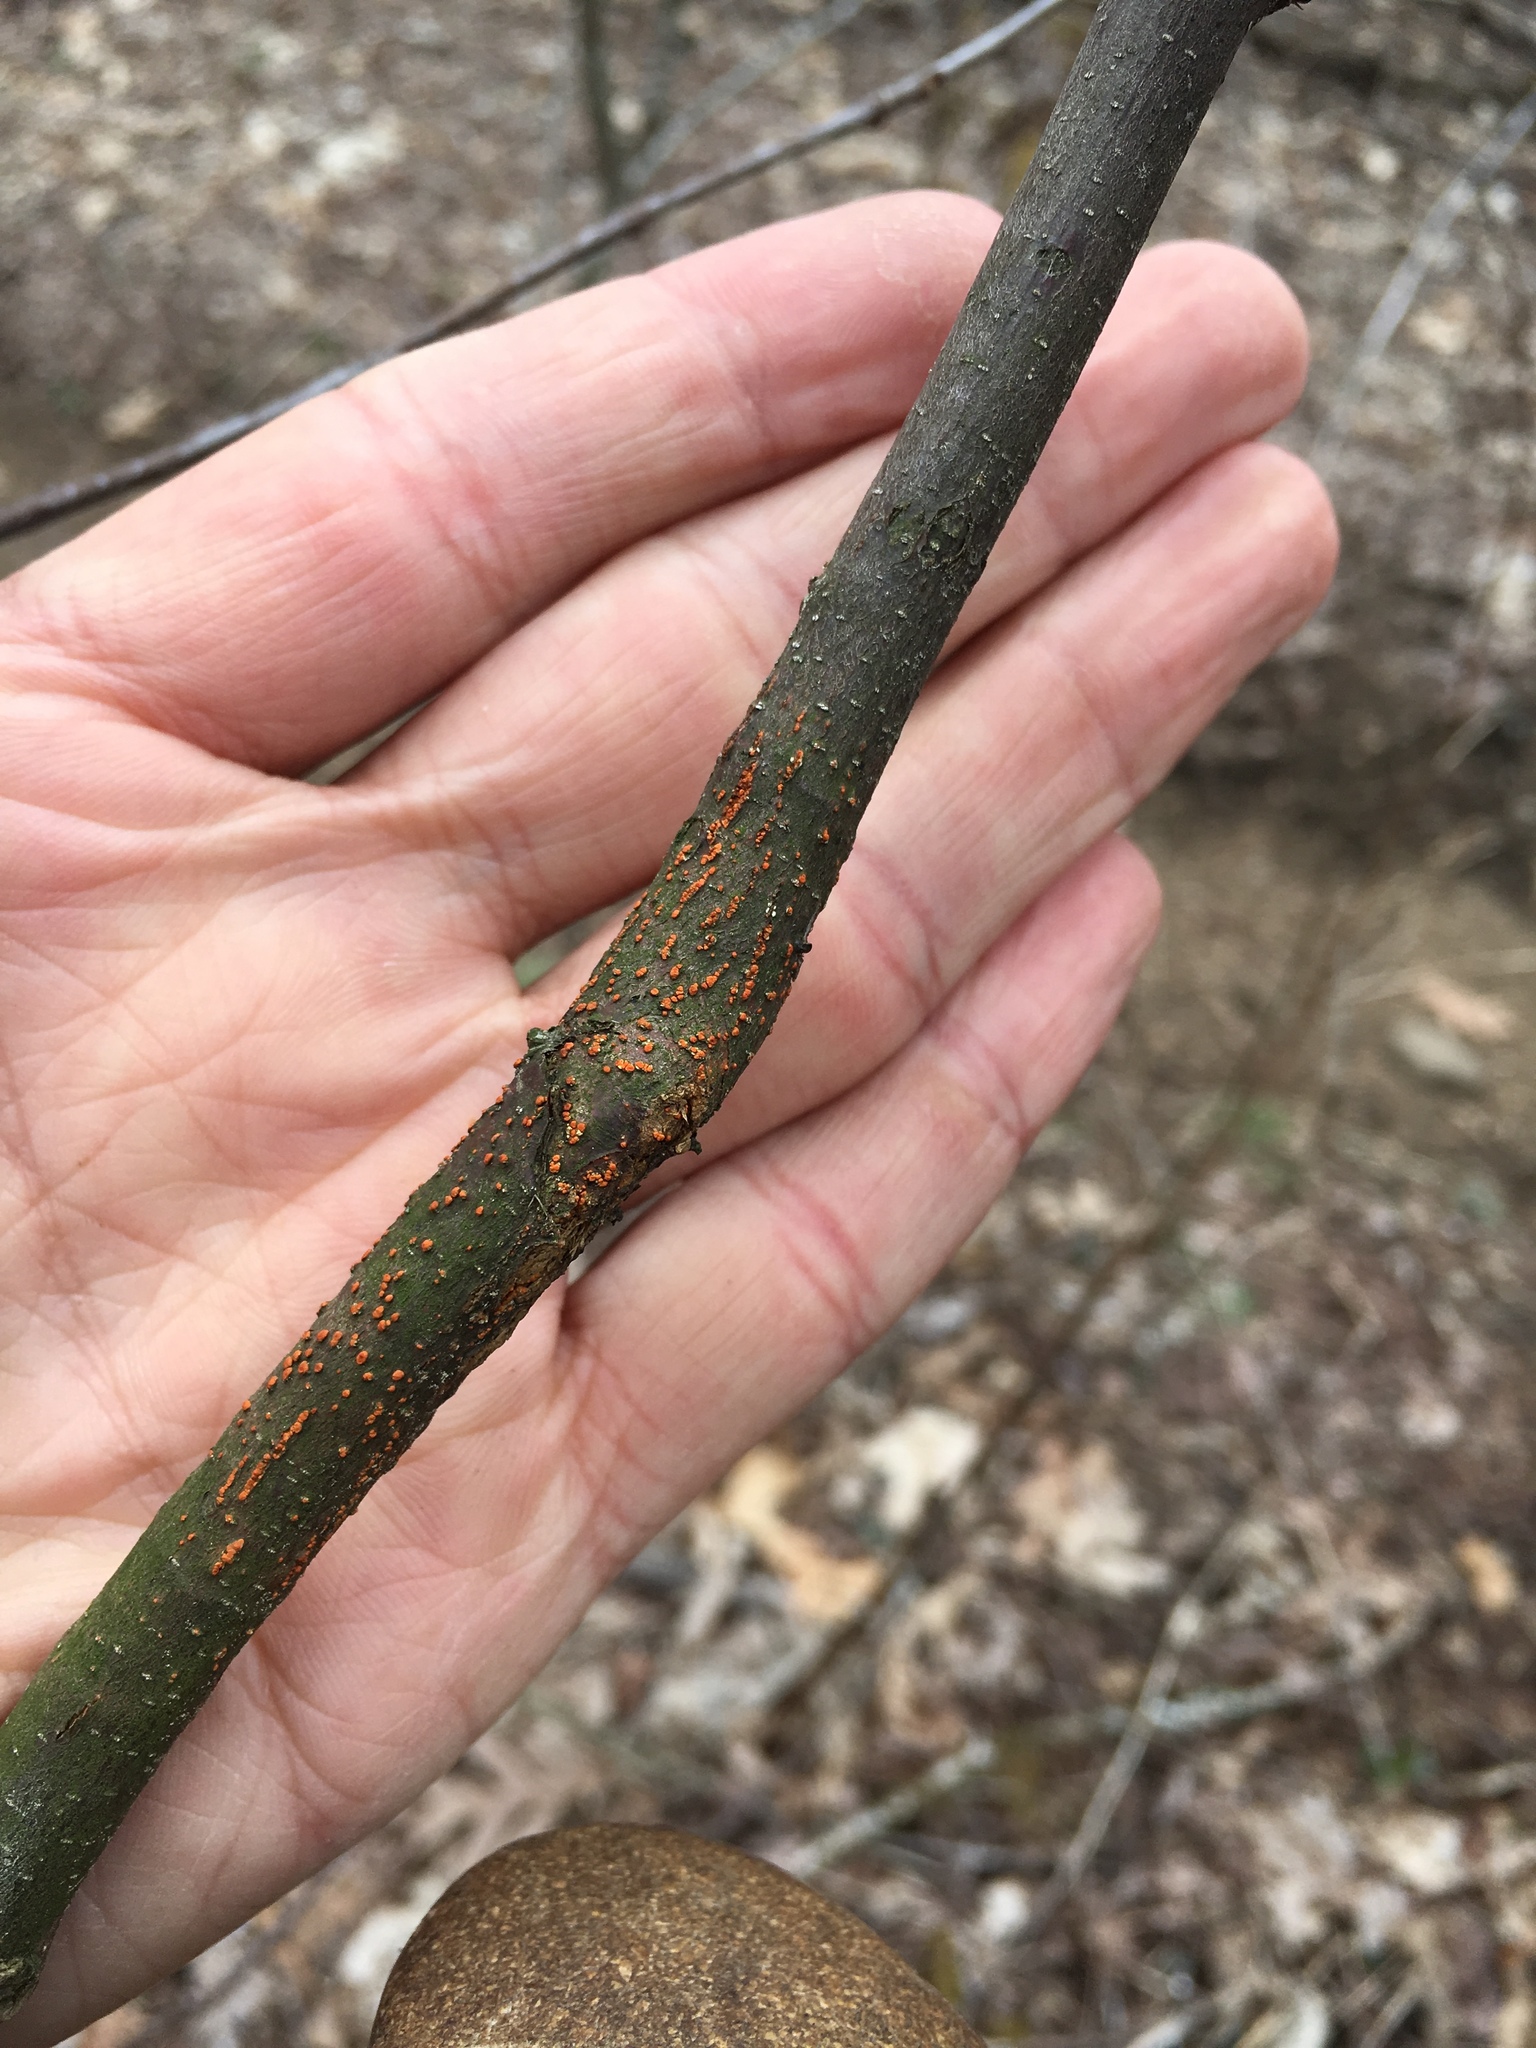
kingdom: Fungi
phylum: Ascomycota
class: Sordariomycetes
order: Diaporthales
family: Cryphonectriaceae
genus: Cryphonectria
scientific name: Cryphonectria parasitica
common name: Chestnut blight
